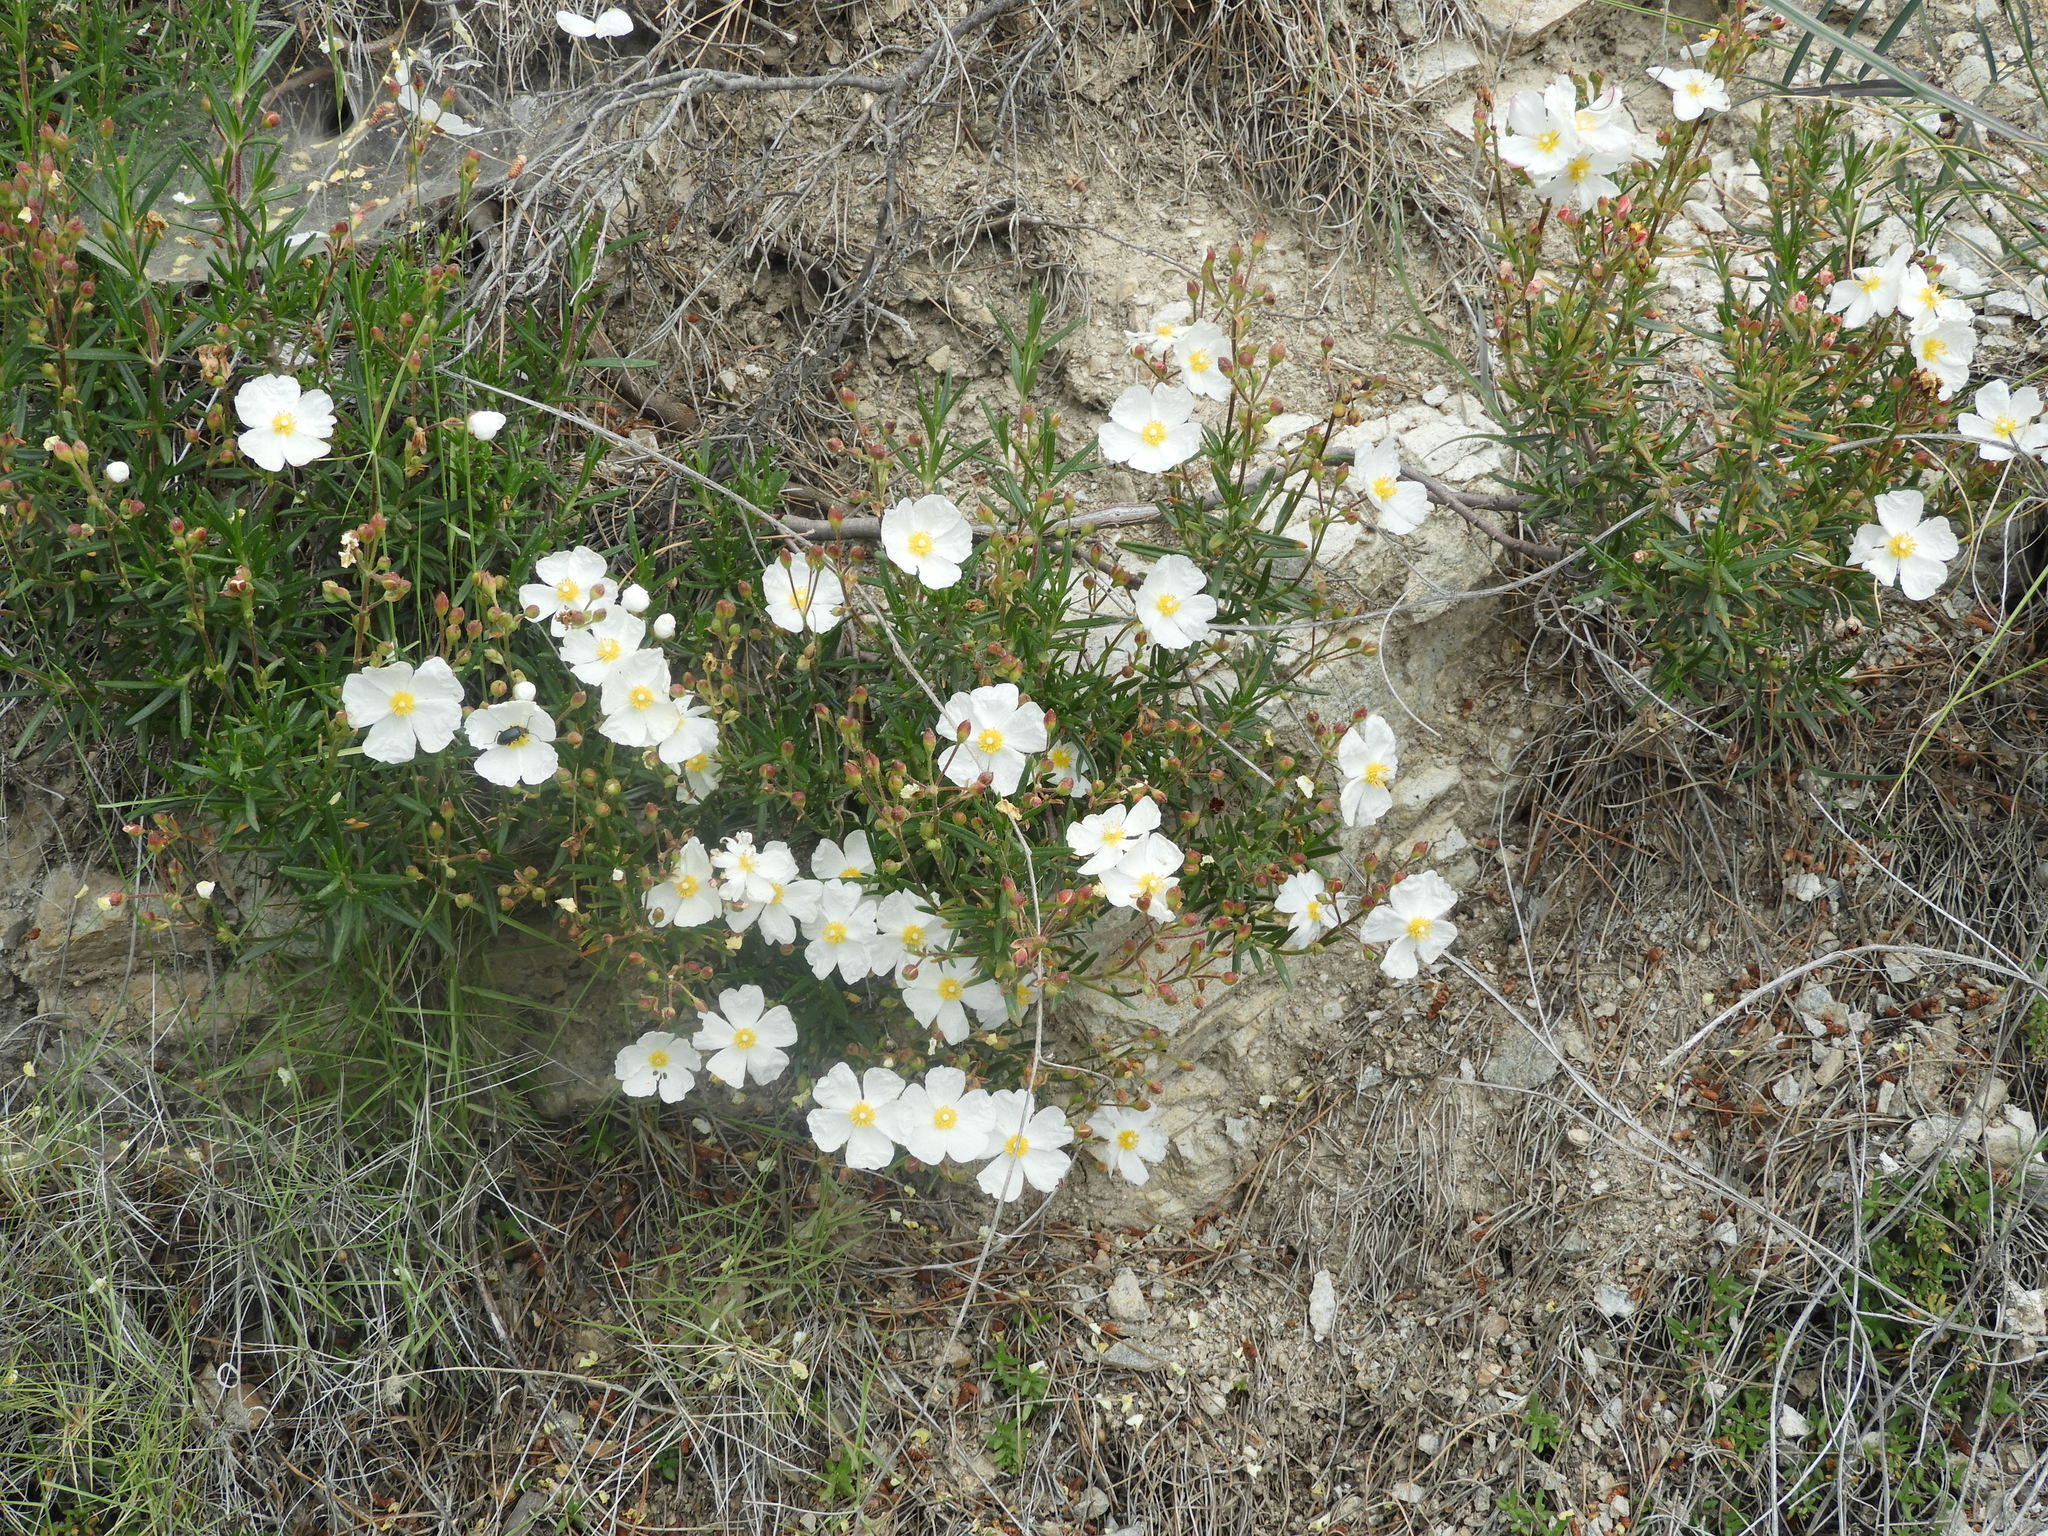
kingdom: Plantae
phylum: Tracheophyta
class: Magnoliopsida
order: Malvales
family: Cistaceae
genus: Cistus
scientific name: Cistus clusii
